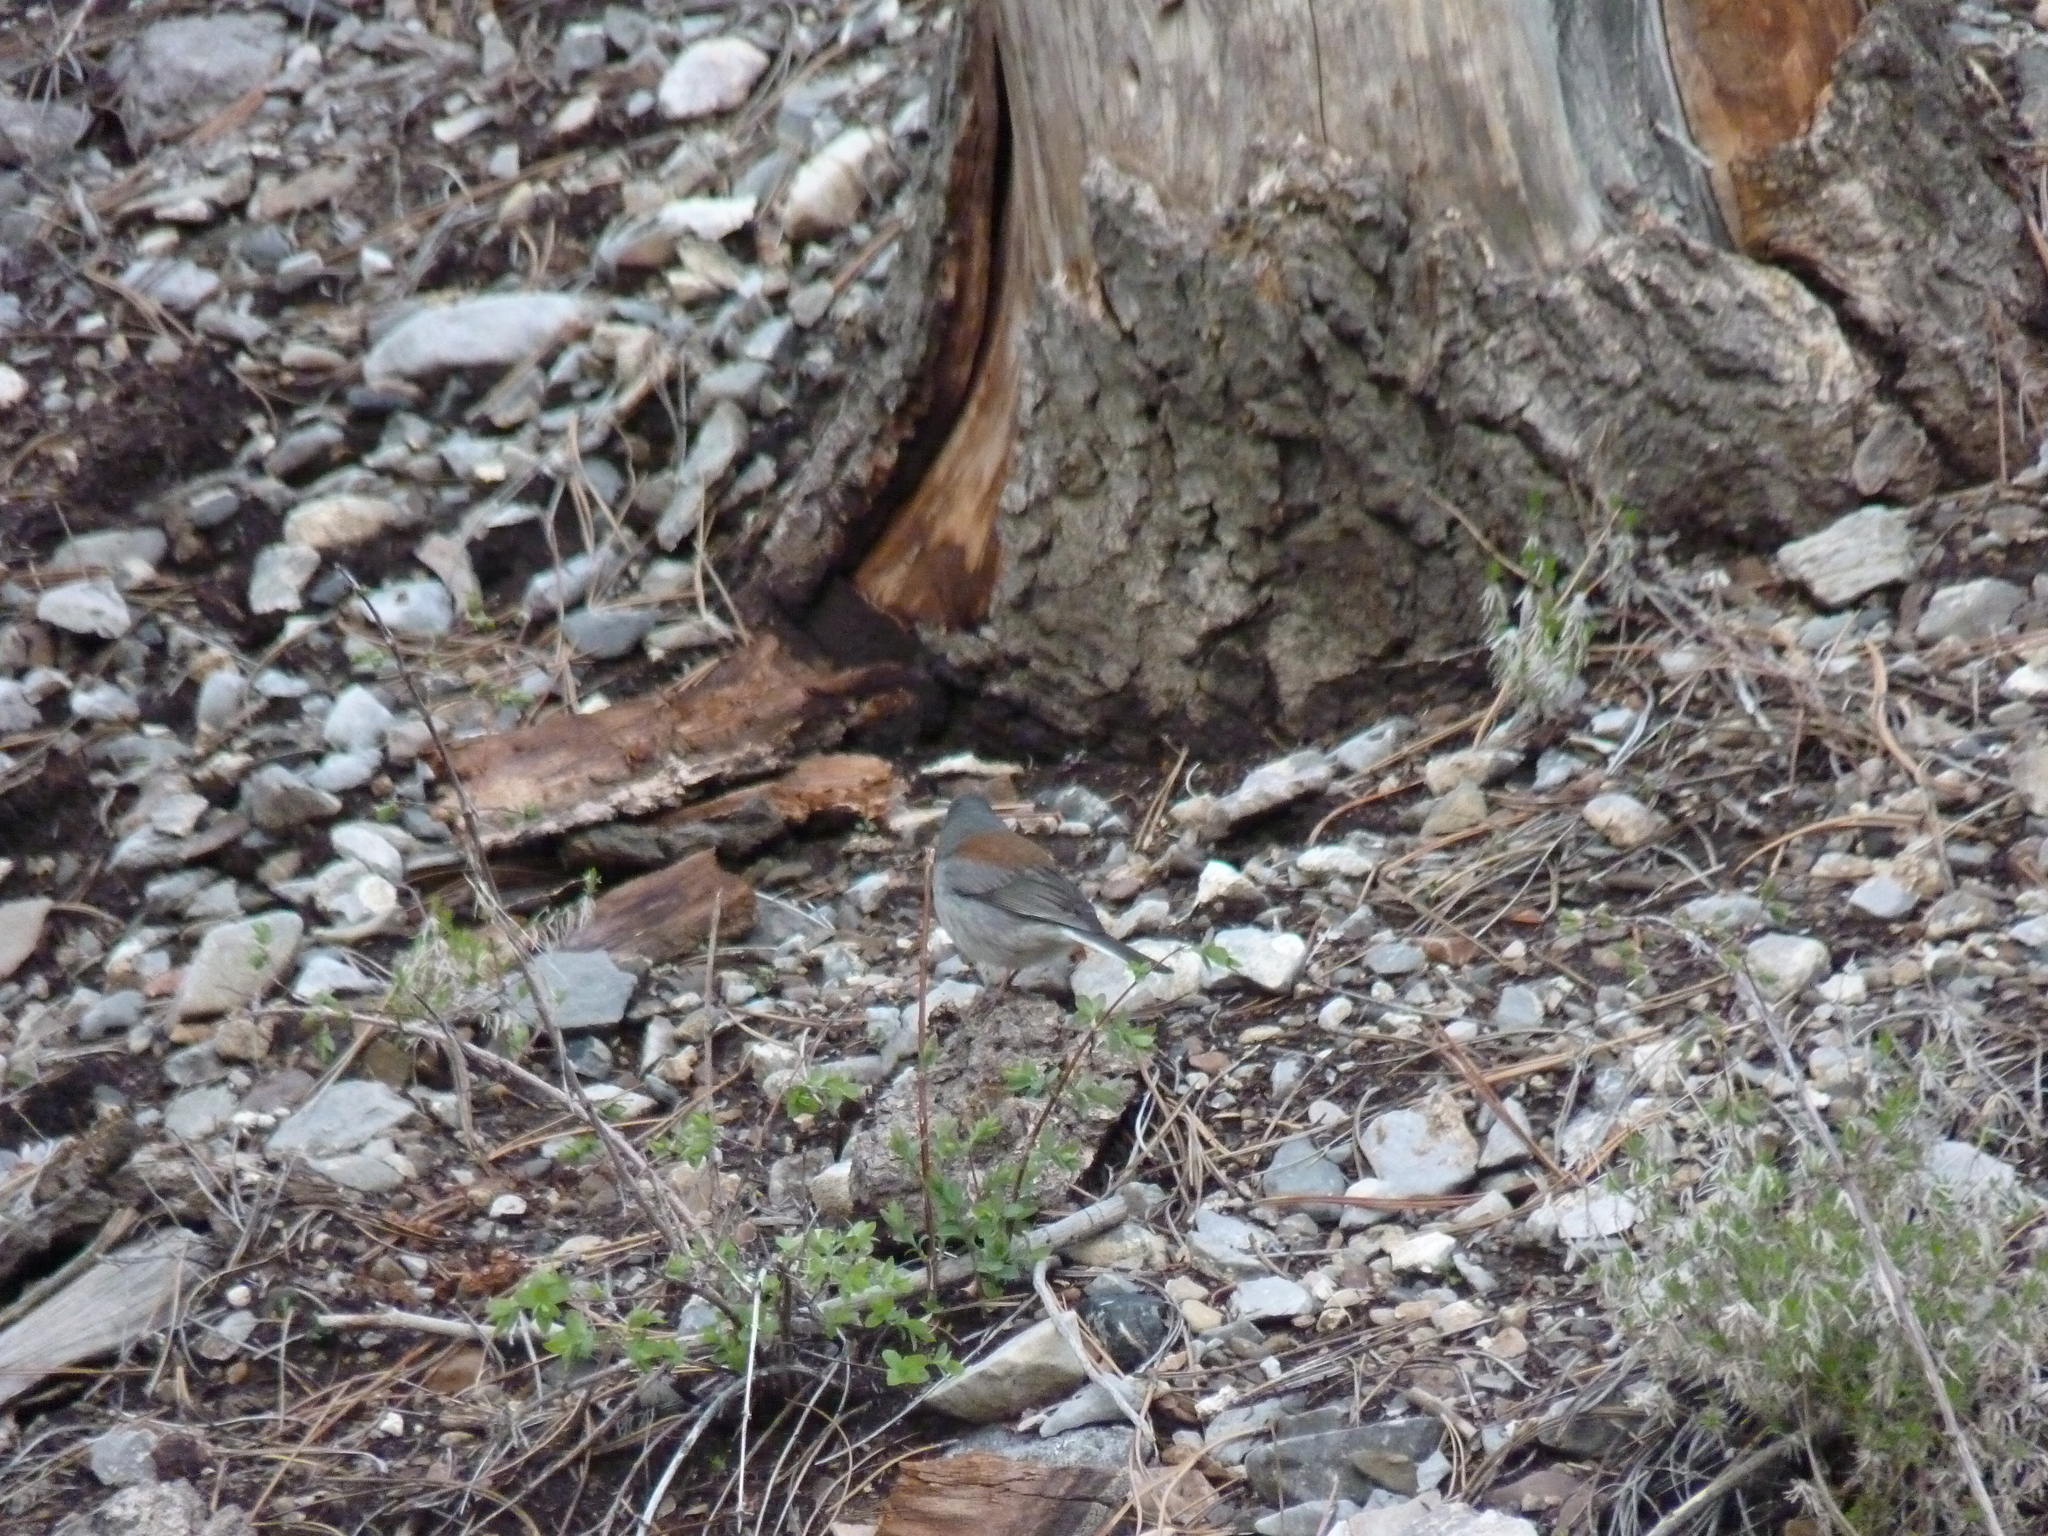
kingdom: Animalia
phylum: Chordata
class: Aves
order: Passeriformes
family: Passerellidae
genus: Junco
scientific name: Junco hyemalis
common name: Dark-eyed junco
